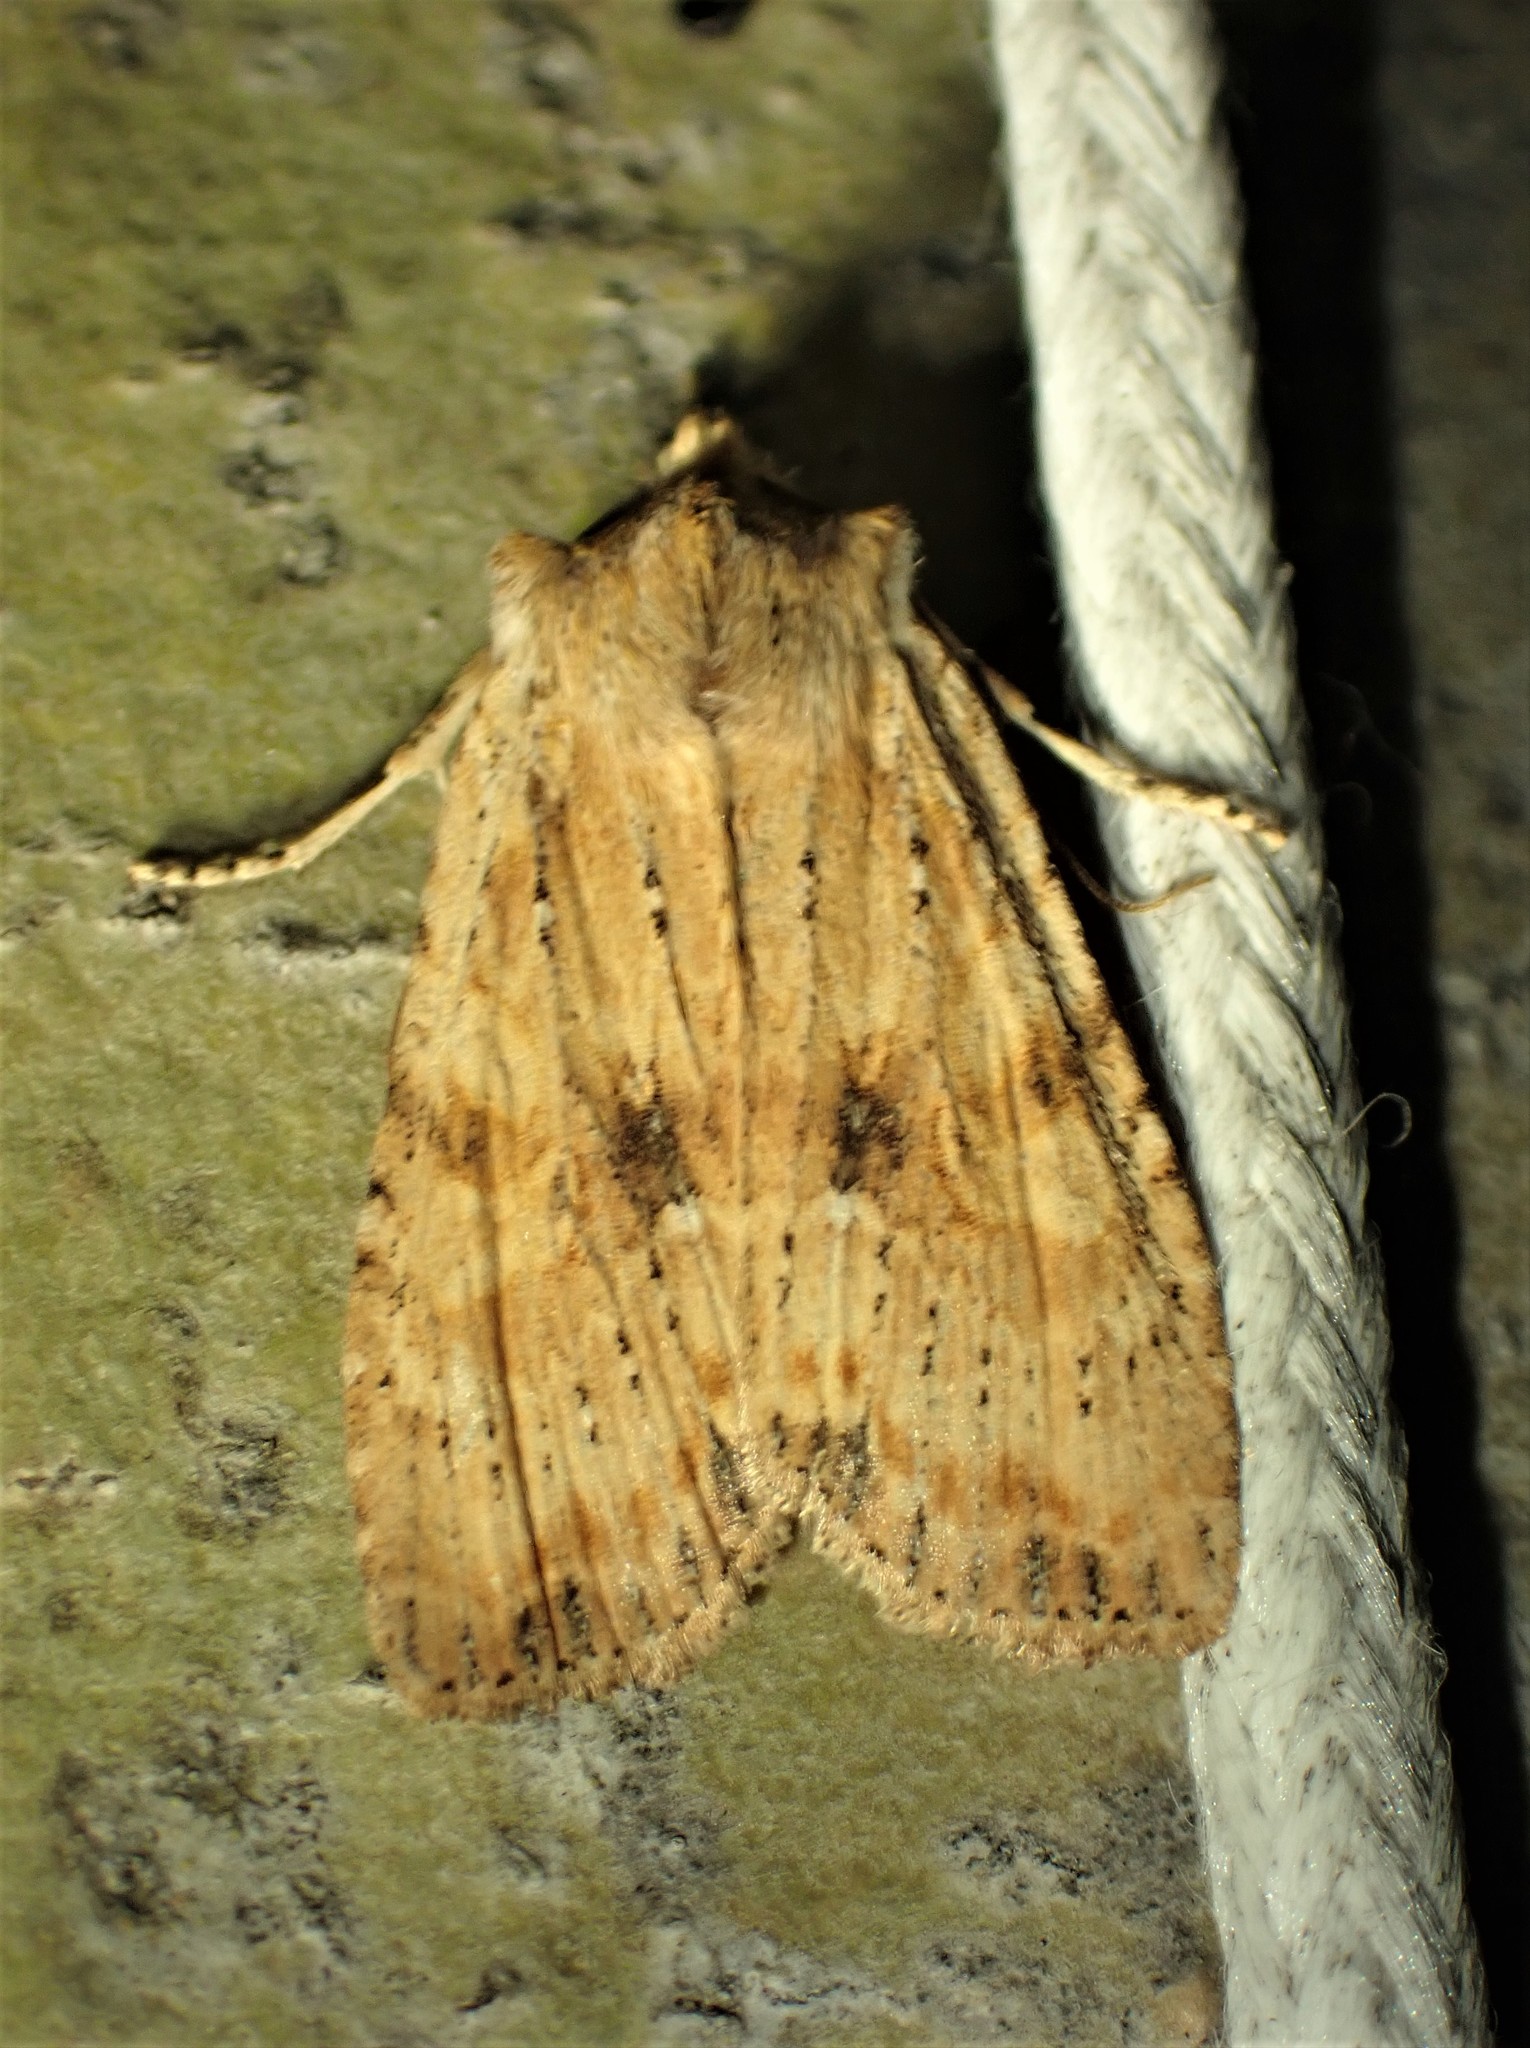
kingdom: Animalia
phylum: Arthropoda
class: Insecta
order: Lepidoptera
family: Noctuidae
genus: Lithophane
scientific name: Lithophane innominata
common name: Nameless pinion moth
